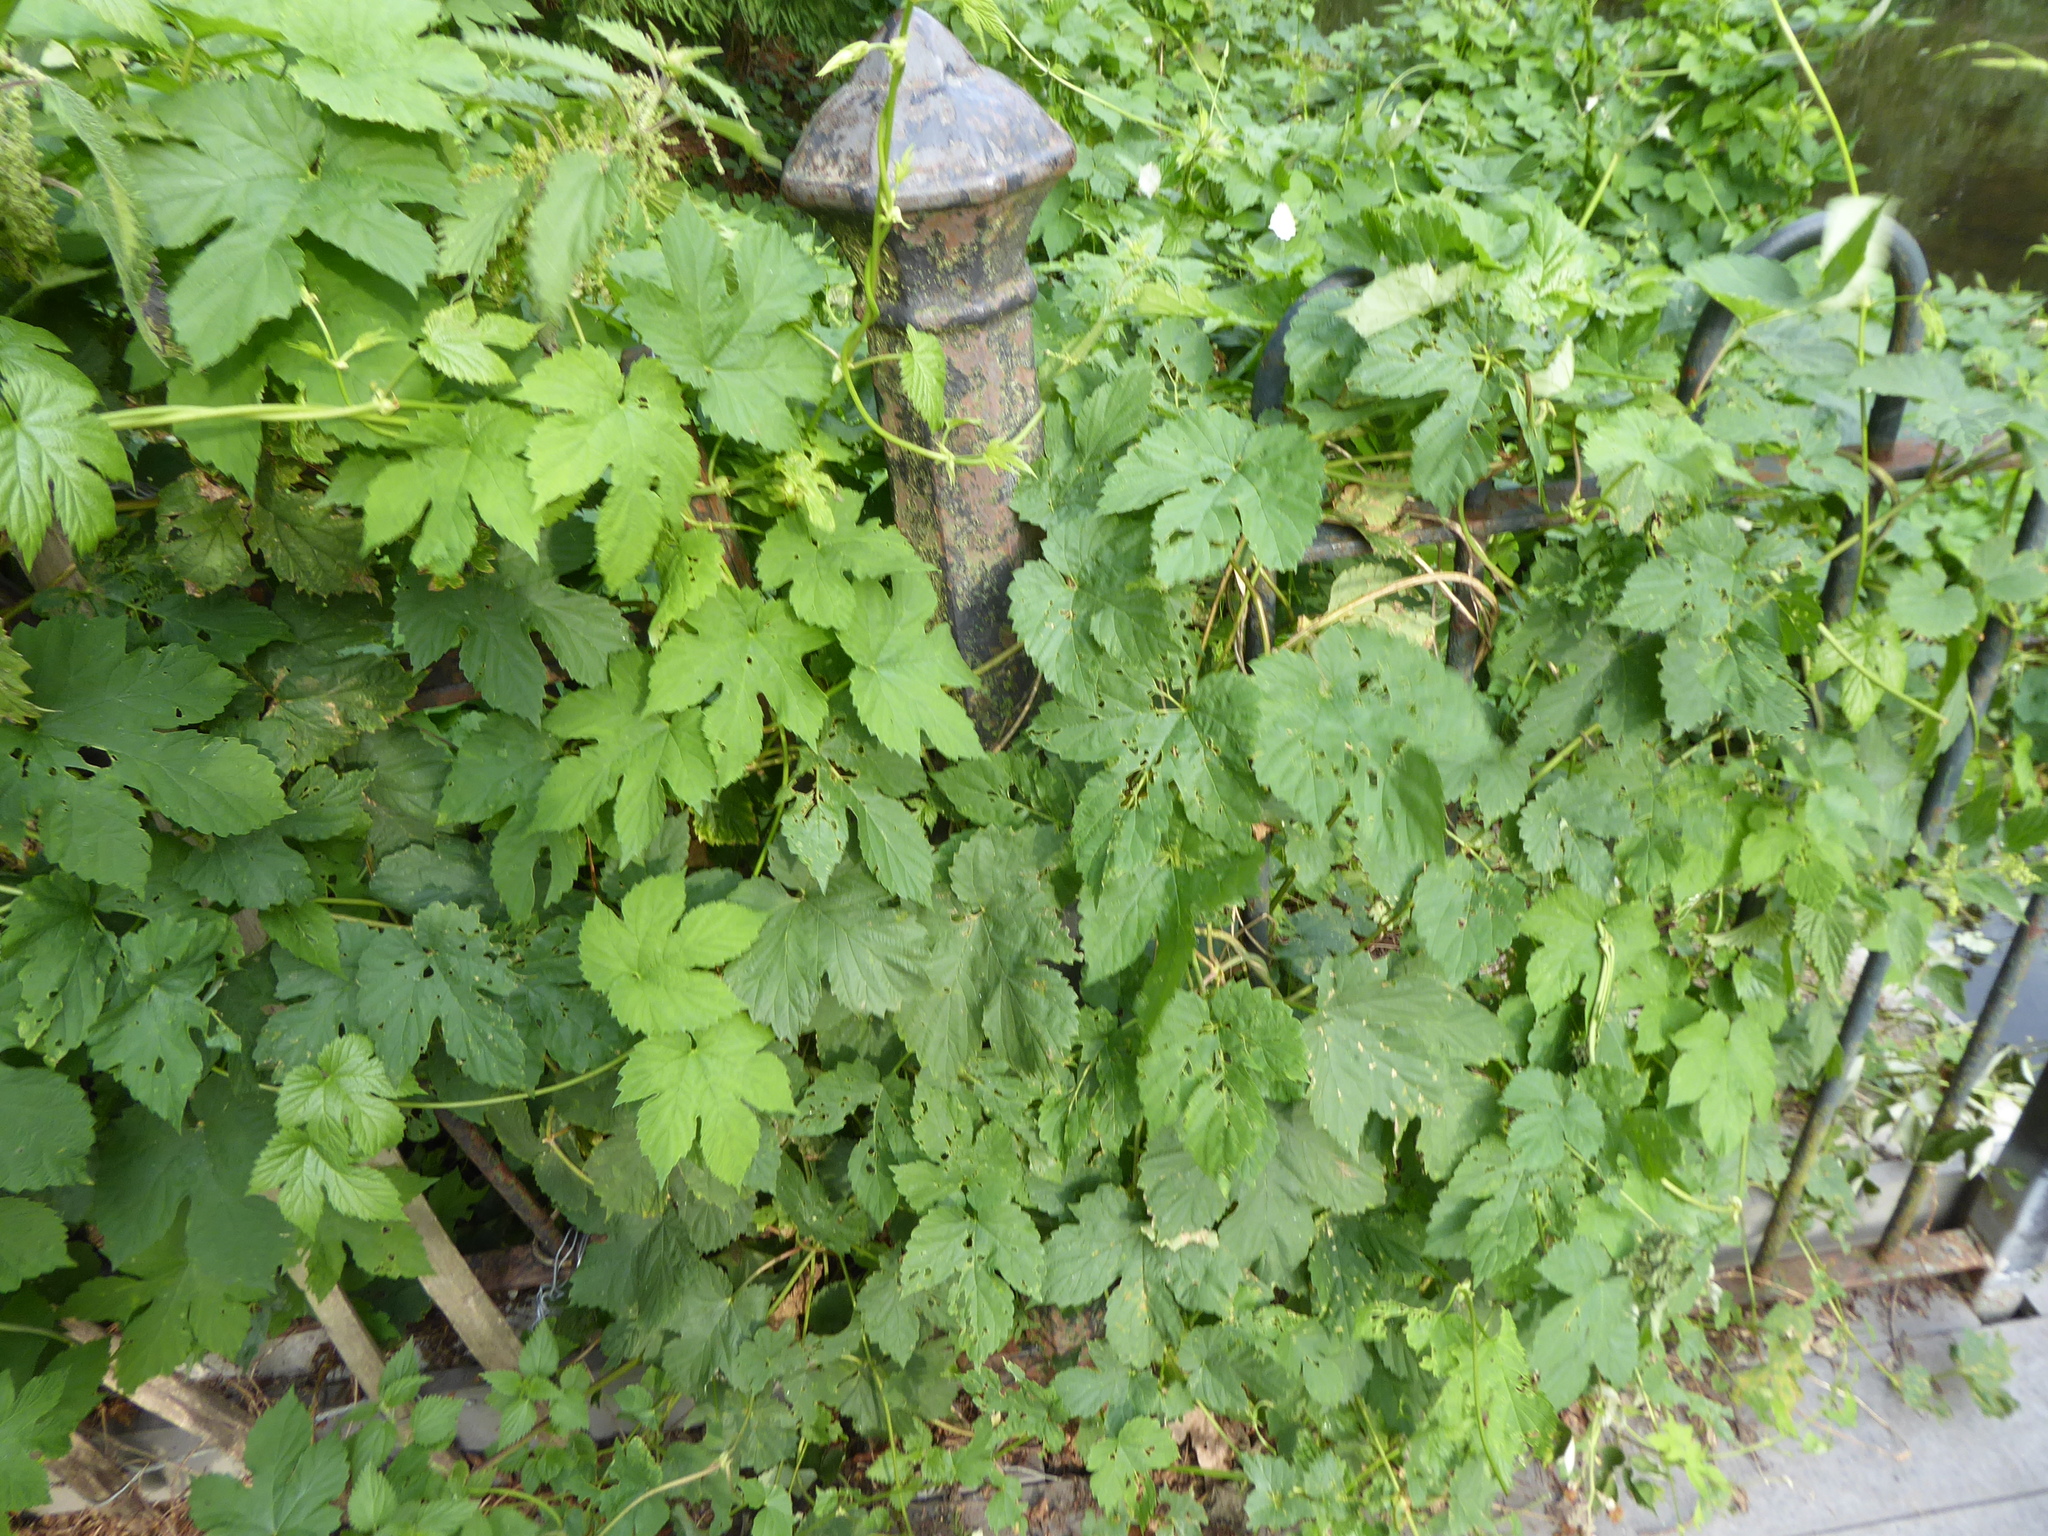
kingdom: Plantae
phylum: Tracheophyta
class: Magnoliopsida
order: Rosales
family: Cannabaceae
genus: Humulus
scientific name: Humulus lupulus
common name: Hop
